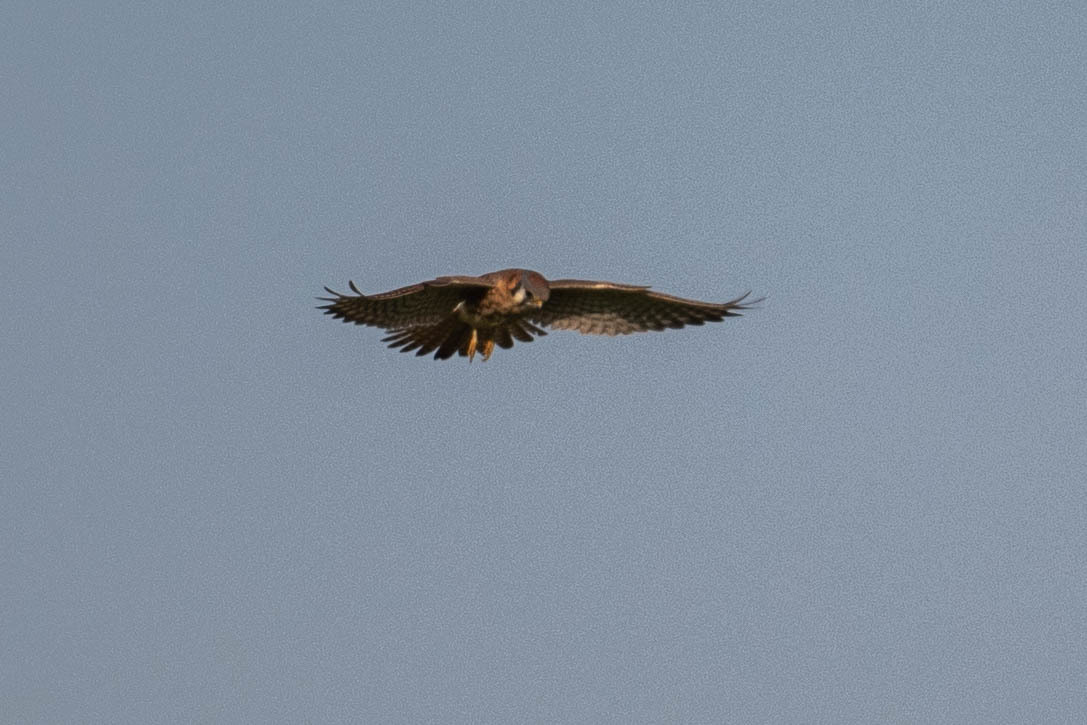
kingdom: Animalia
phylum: Chordata
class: Aves
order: Falconiformes
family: Falconidae
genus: Falco
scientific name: Falco sparverius
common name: American kestrel
